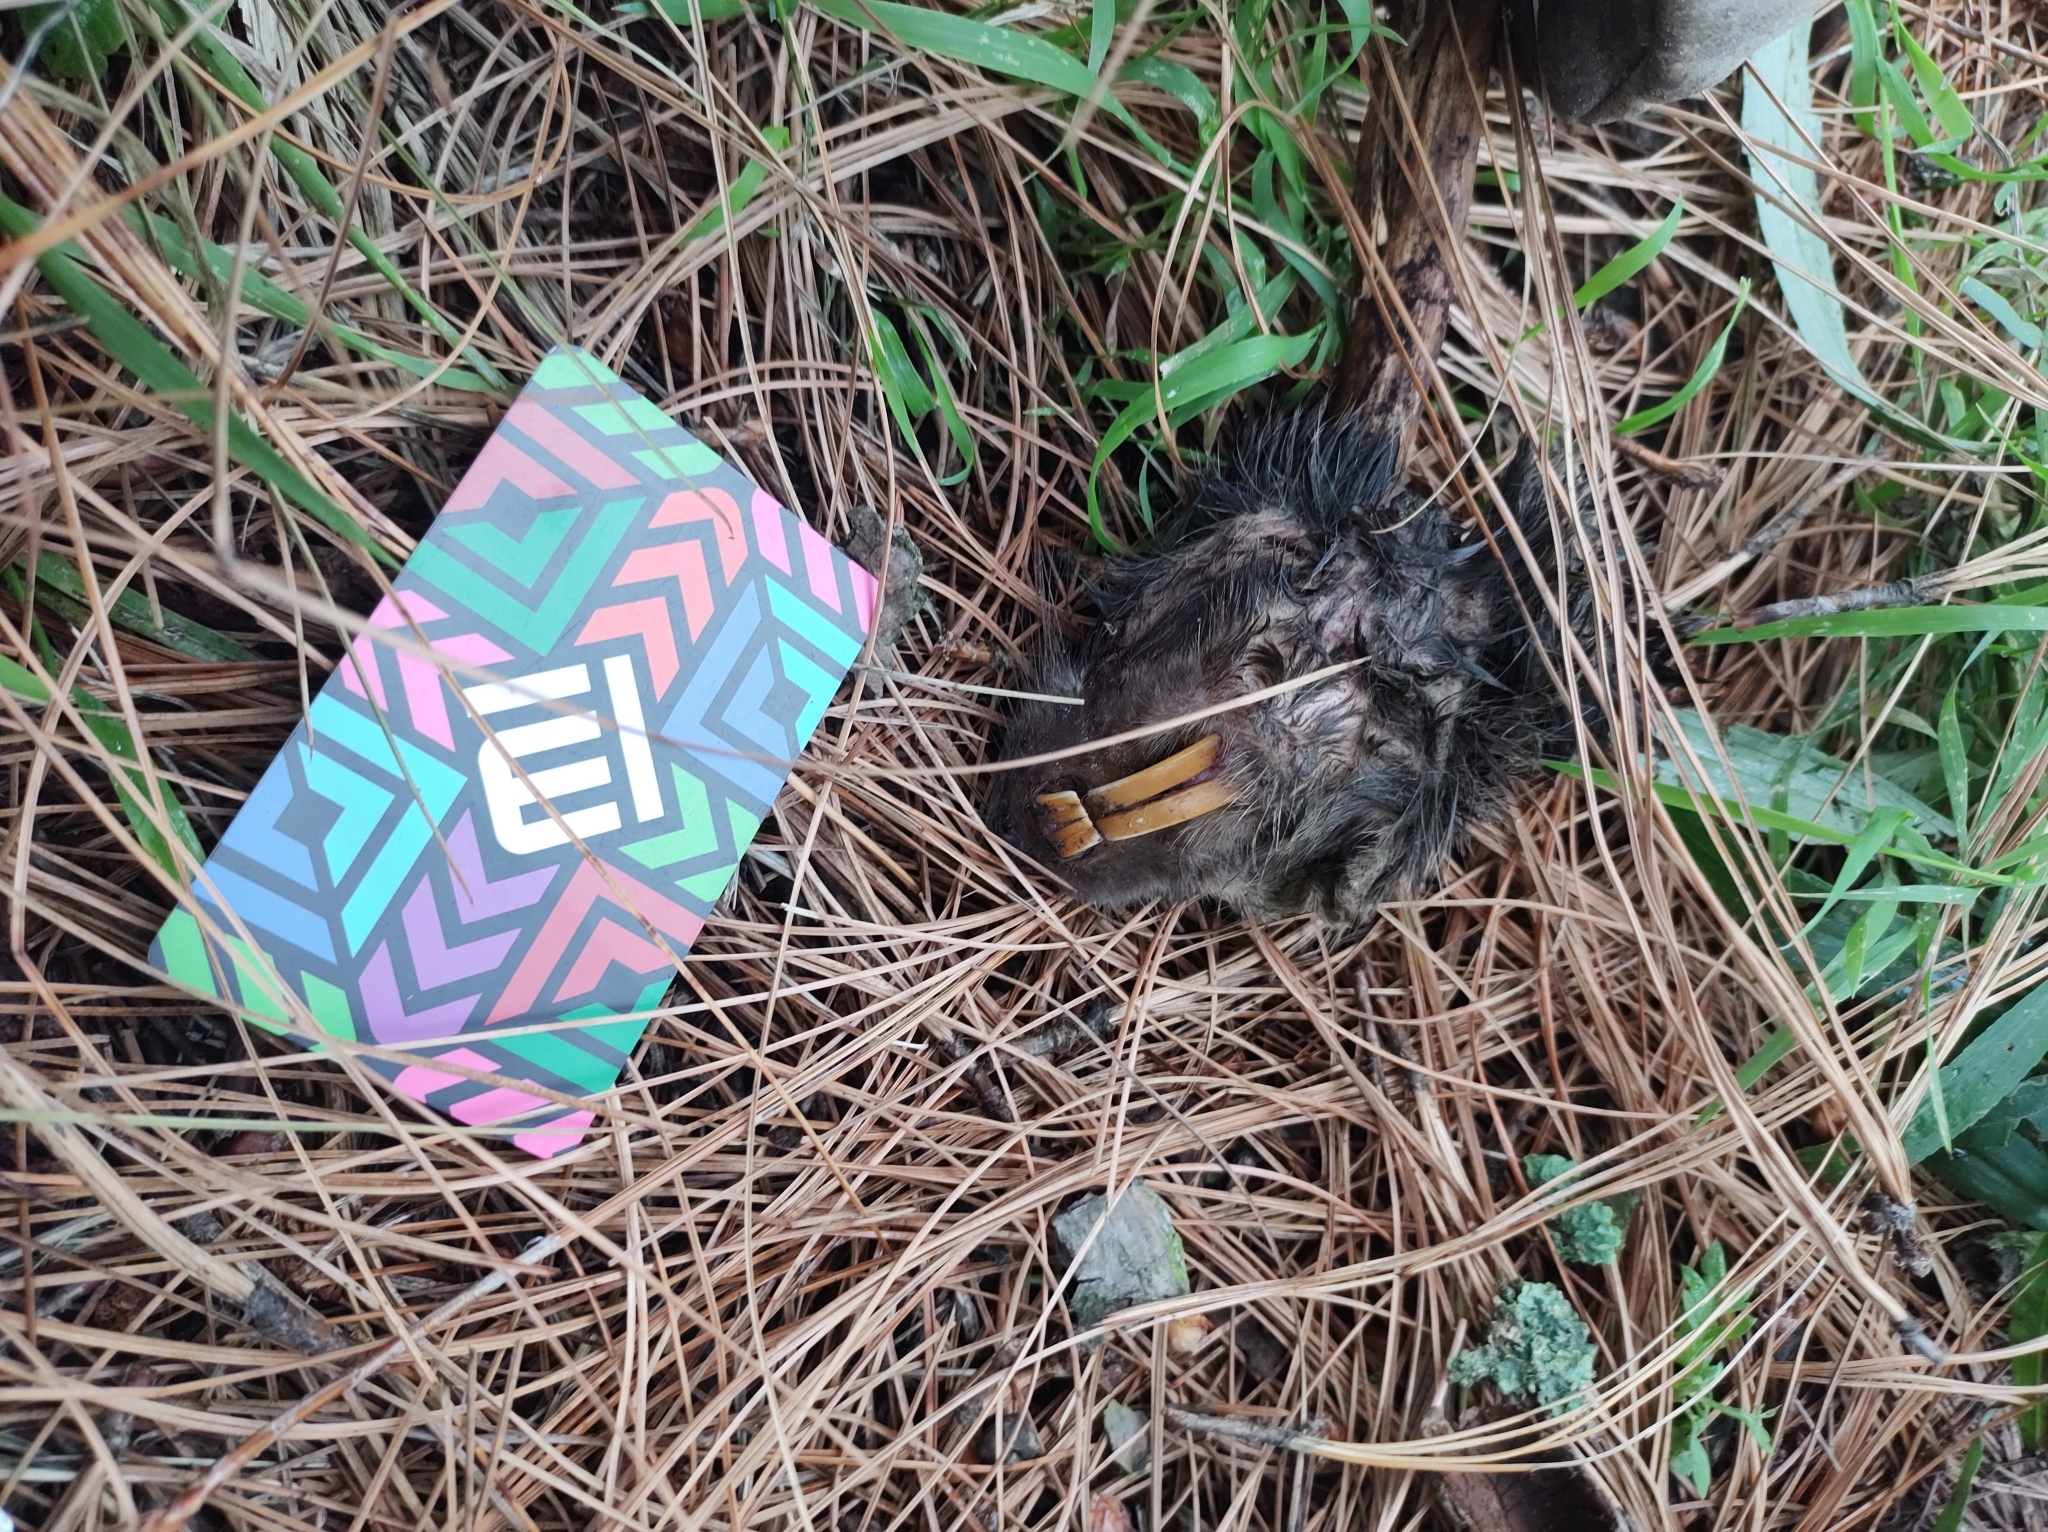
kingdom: Animalia
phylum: Chordata
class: Mammalia
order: Rodentia
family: Geomyidae
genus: Cratogeomys
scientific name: Cratogeomys merriami
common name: Merriam's pocket gopher
